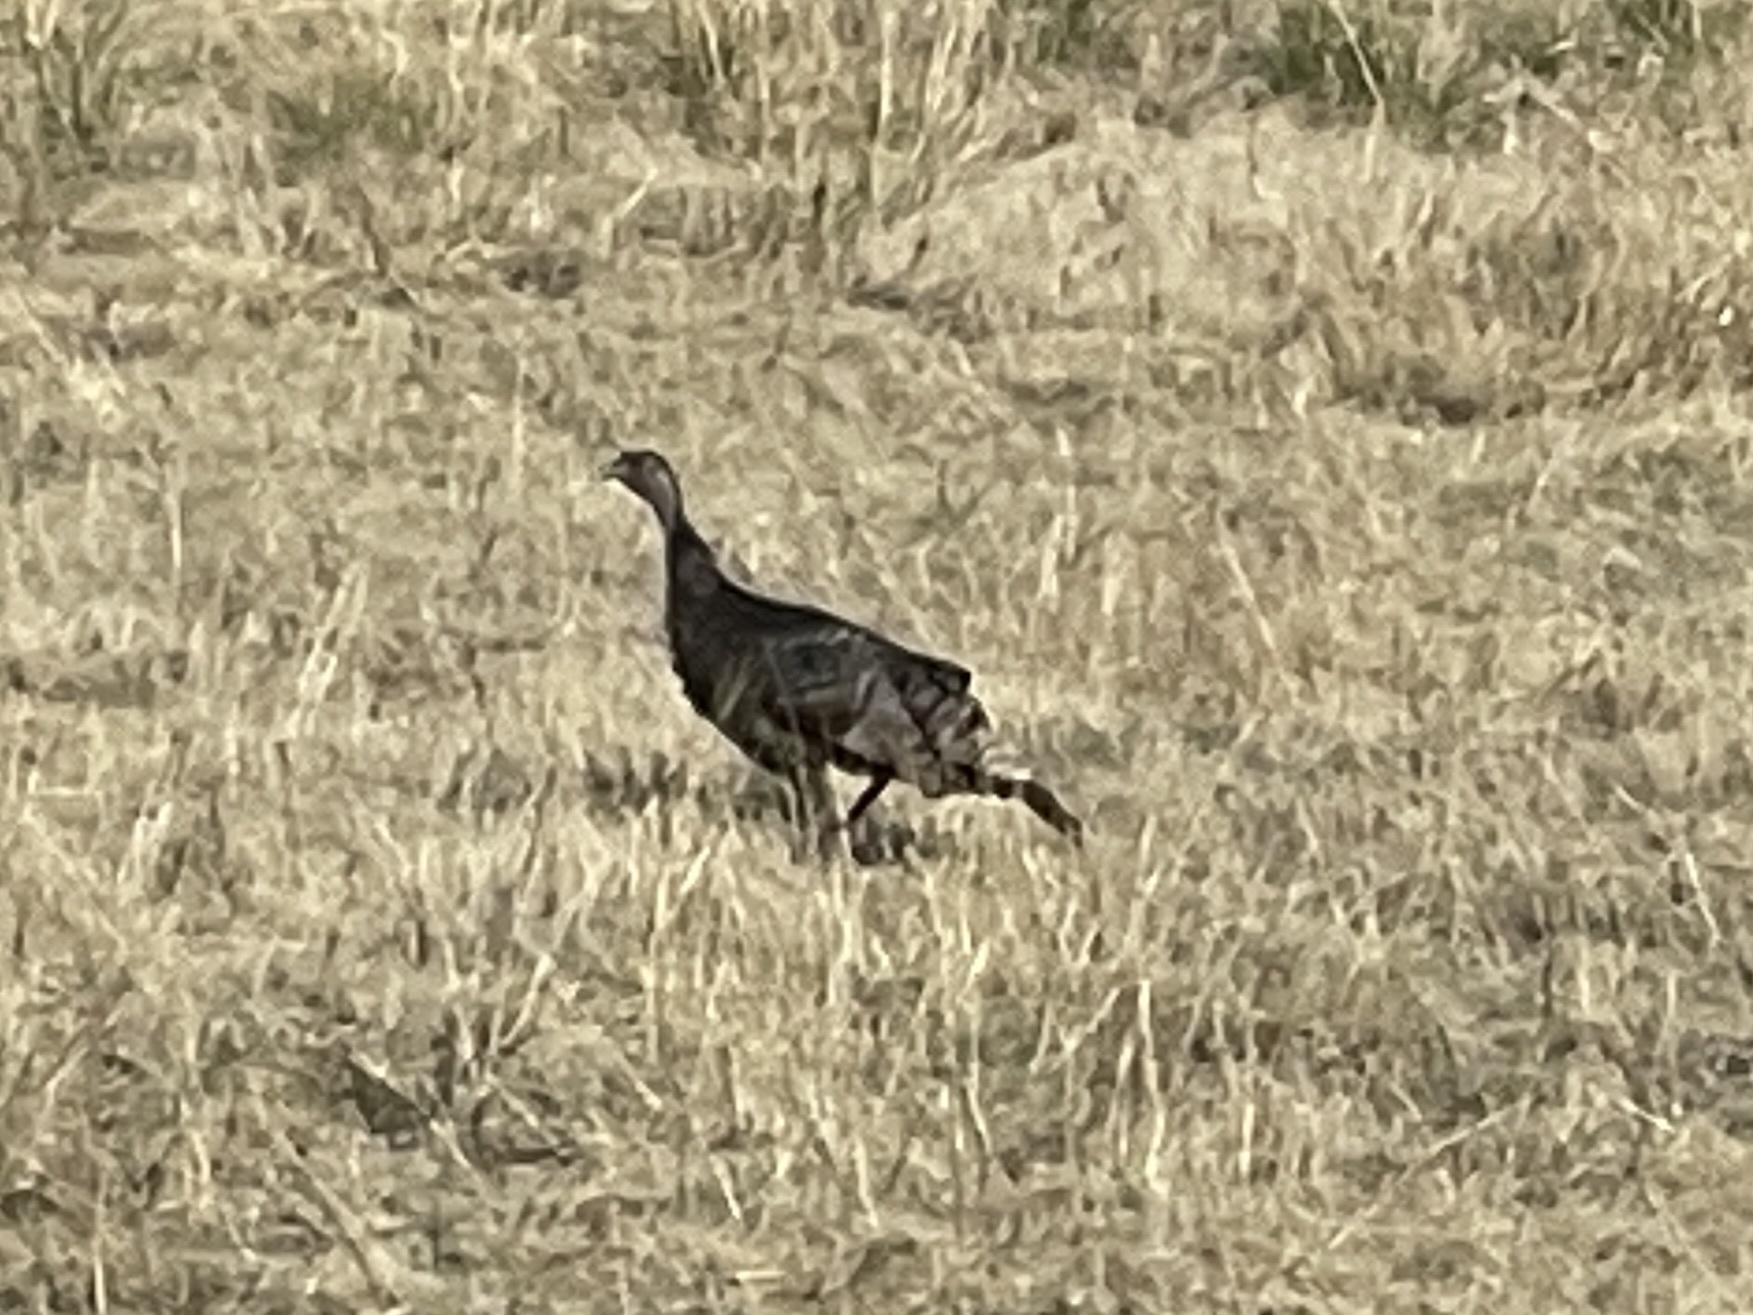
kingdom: Animalia
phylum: Chordata
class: Aves
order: Galliformes
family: Phasianidae
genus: Meleagris
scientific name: Meleagris gallopavo
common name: Wild turkey
